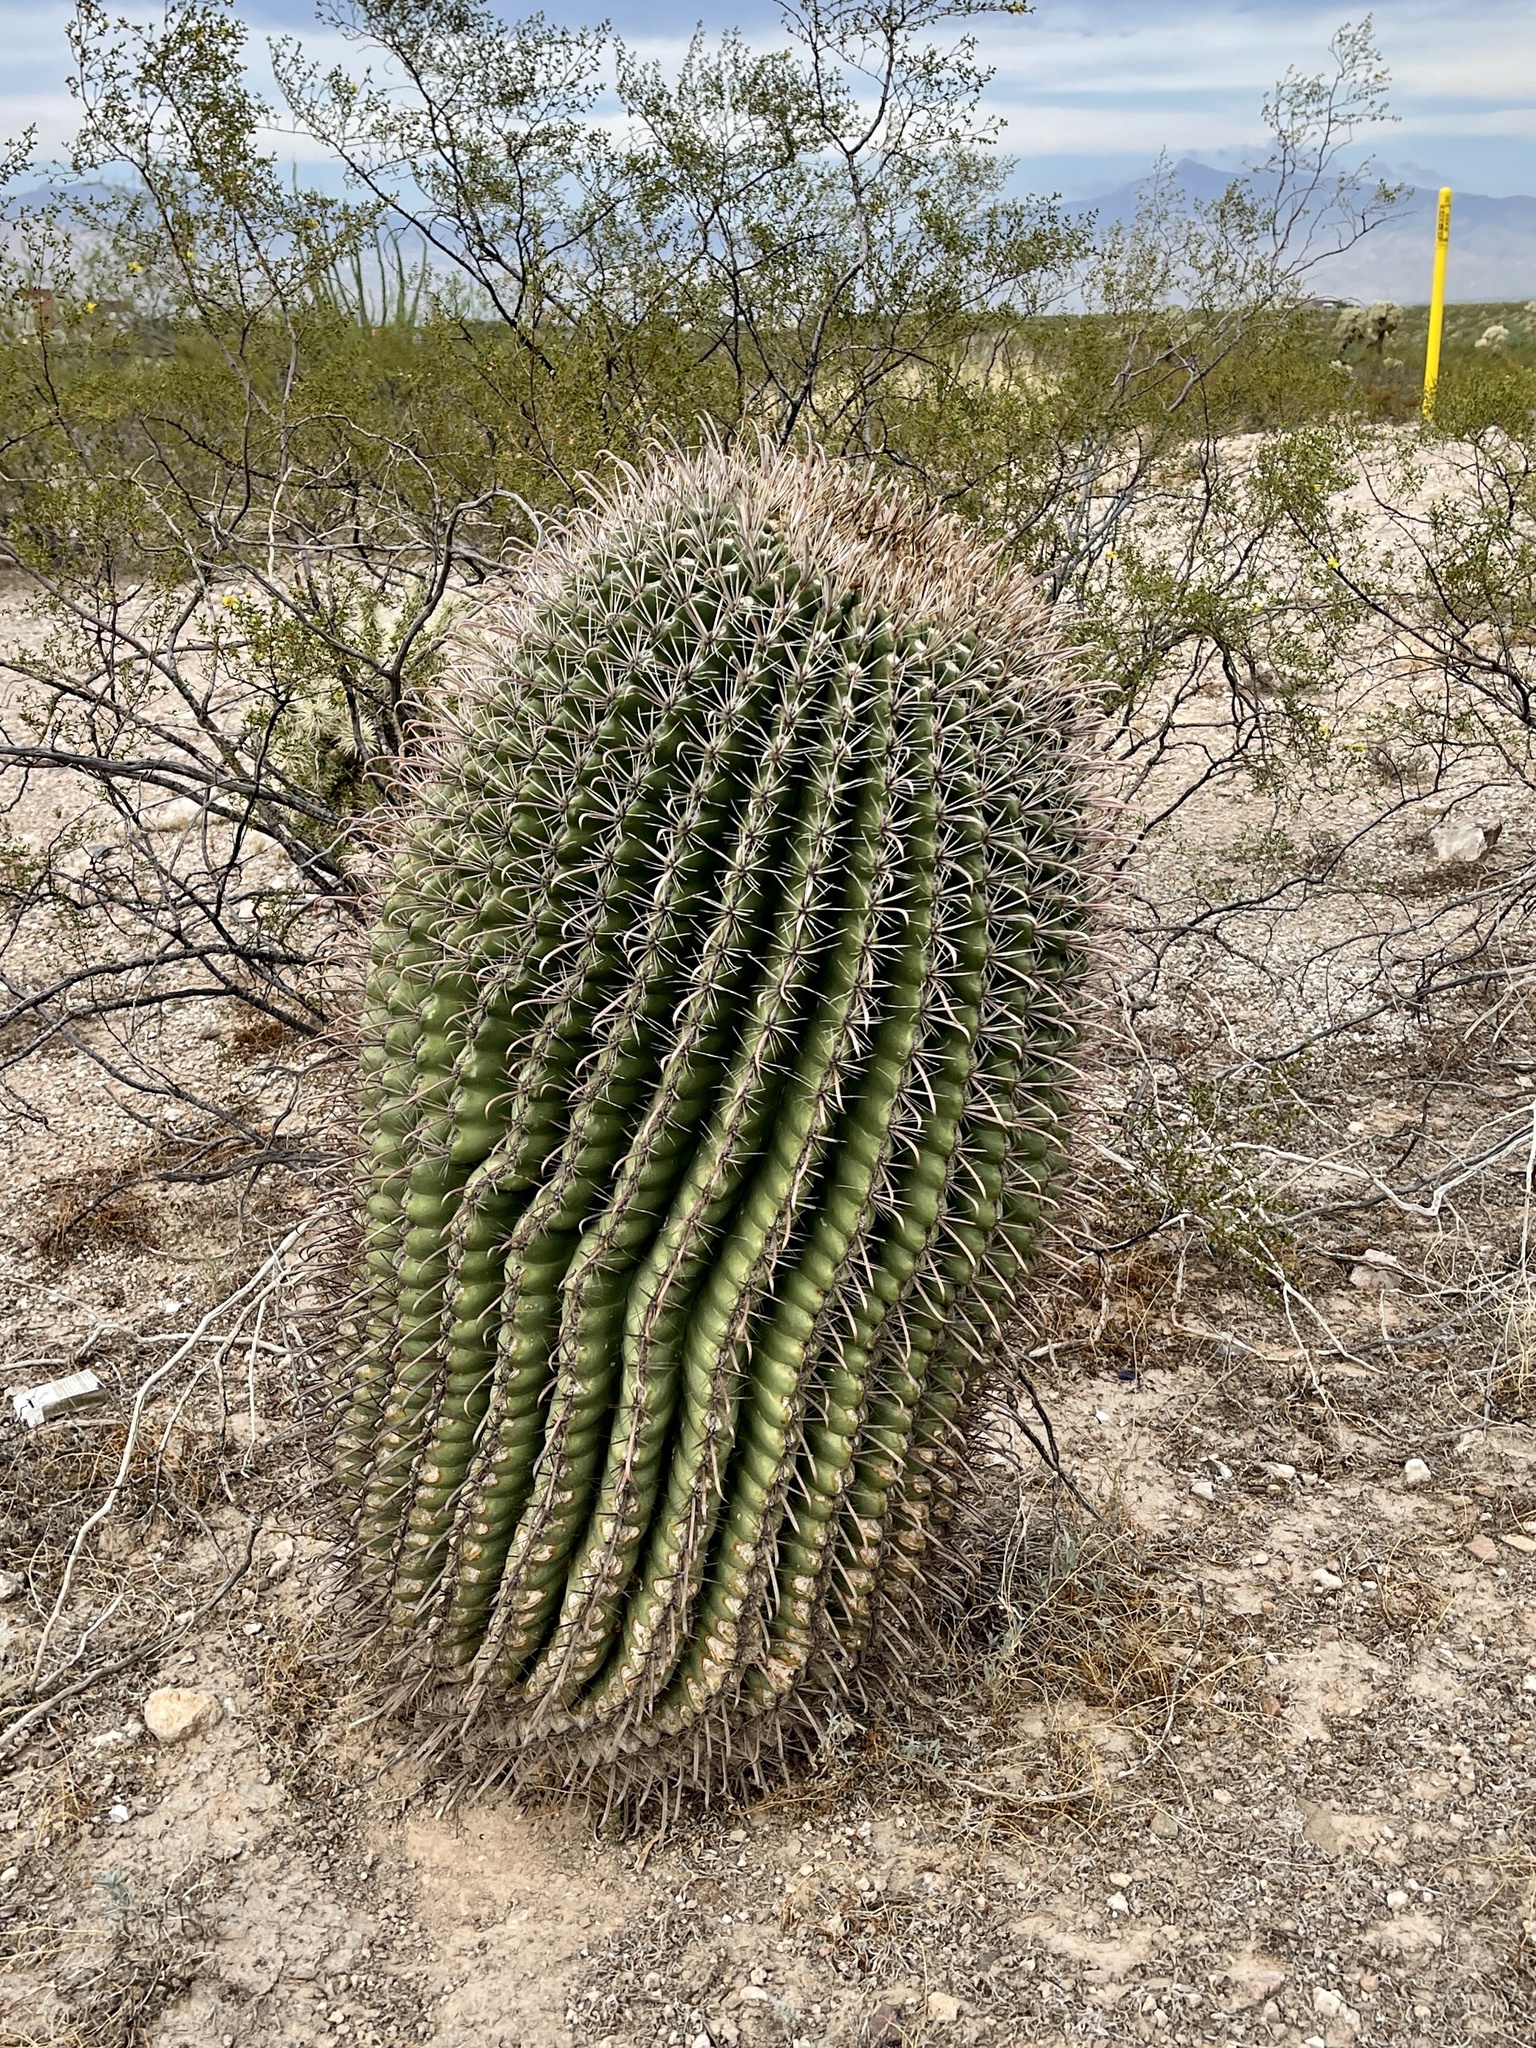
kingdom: Plantae
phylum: Tracheophyta
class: Magnoliopsida
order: Caryophyllales
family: Cactaceae
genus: Ferocactus
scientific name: Ferocactus wislizeni
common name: Candy barrel cactus
